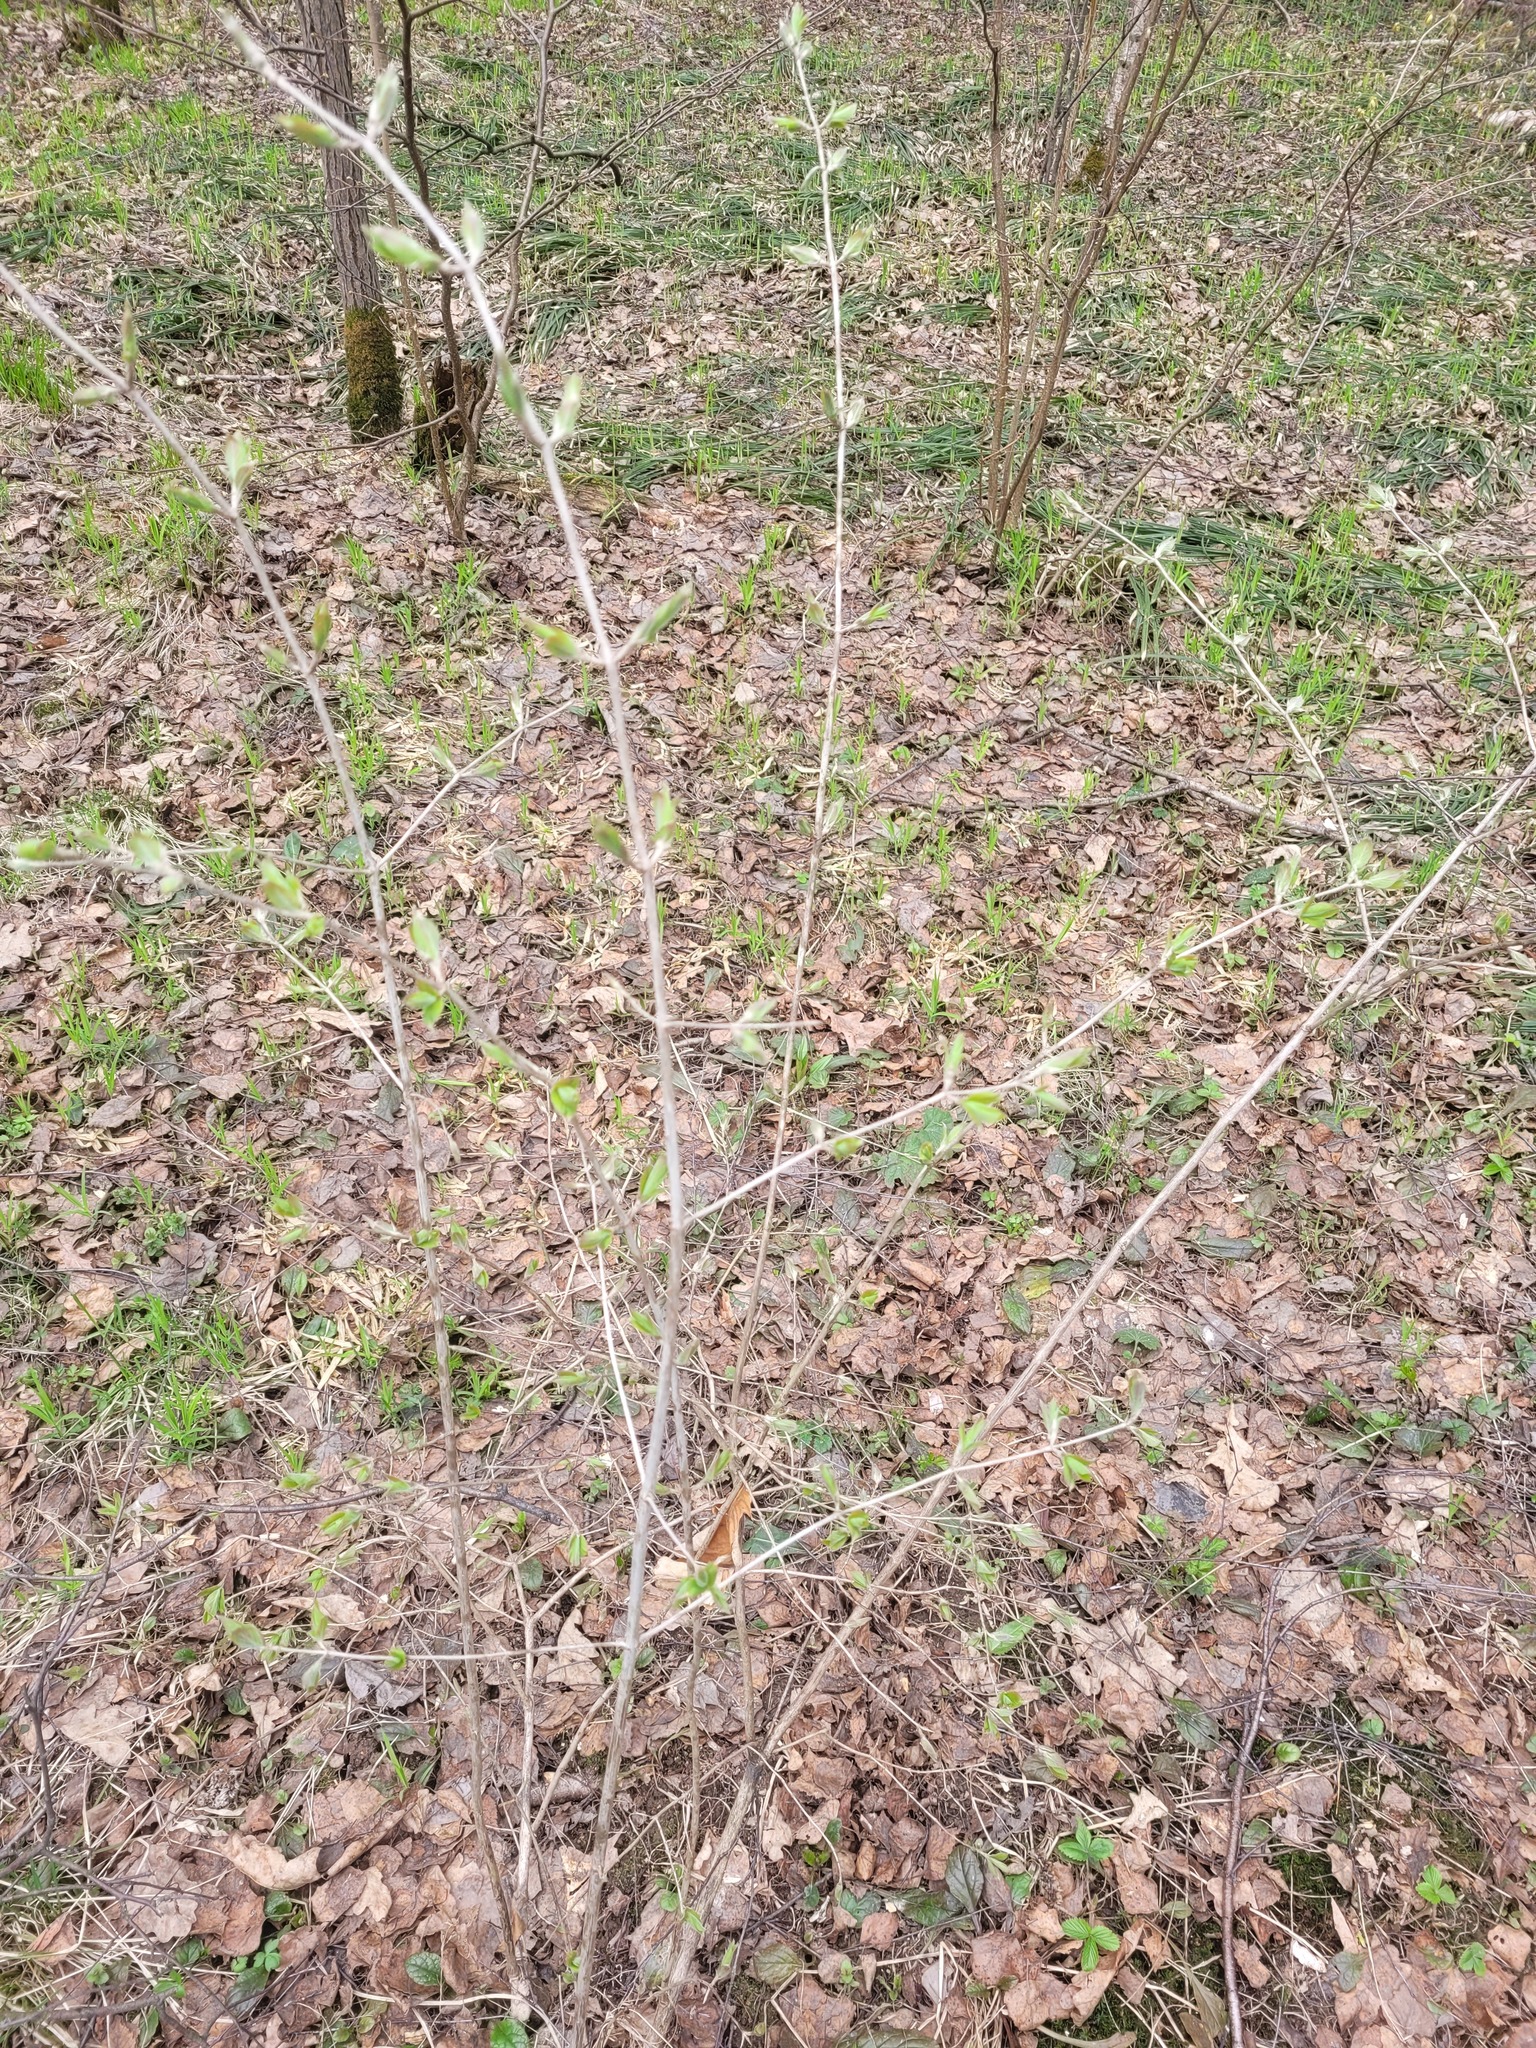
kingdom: Plantae
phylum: Tracheophyta
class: Magnoliopsida
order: Dipsacales
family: Caprifoliaceae
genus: Lonicera
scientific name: Lonicera xylosteum
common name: Fly honeysuckle
